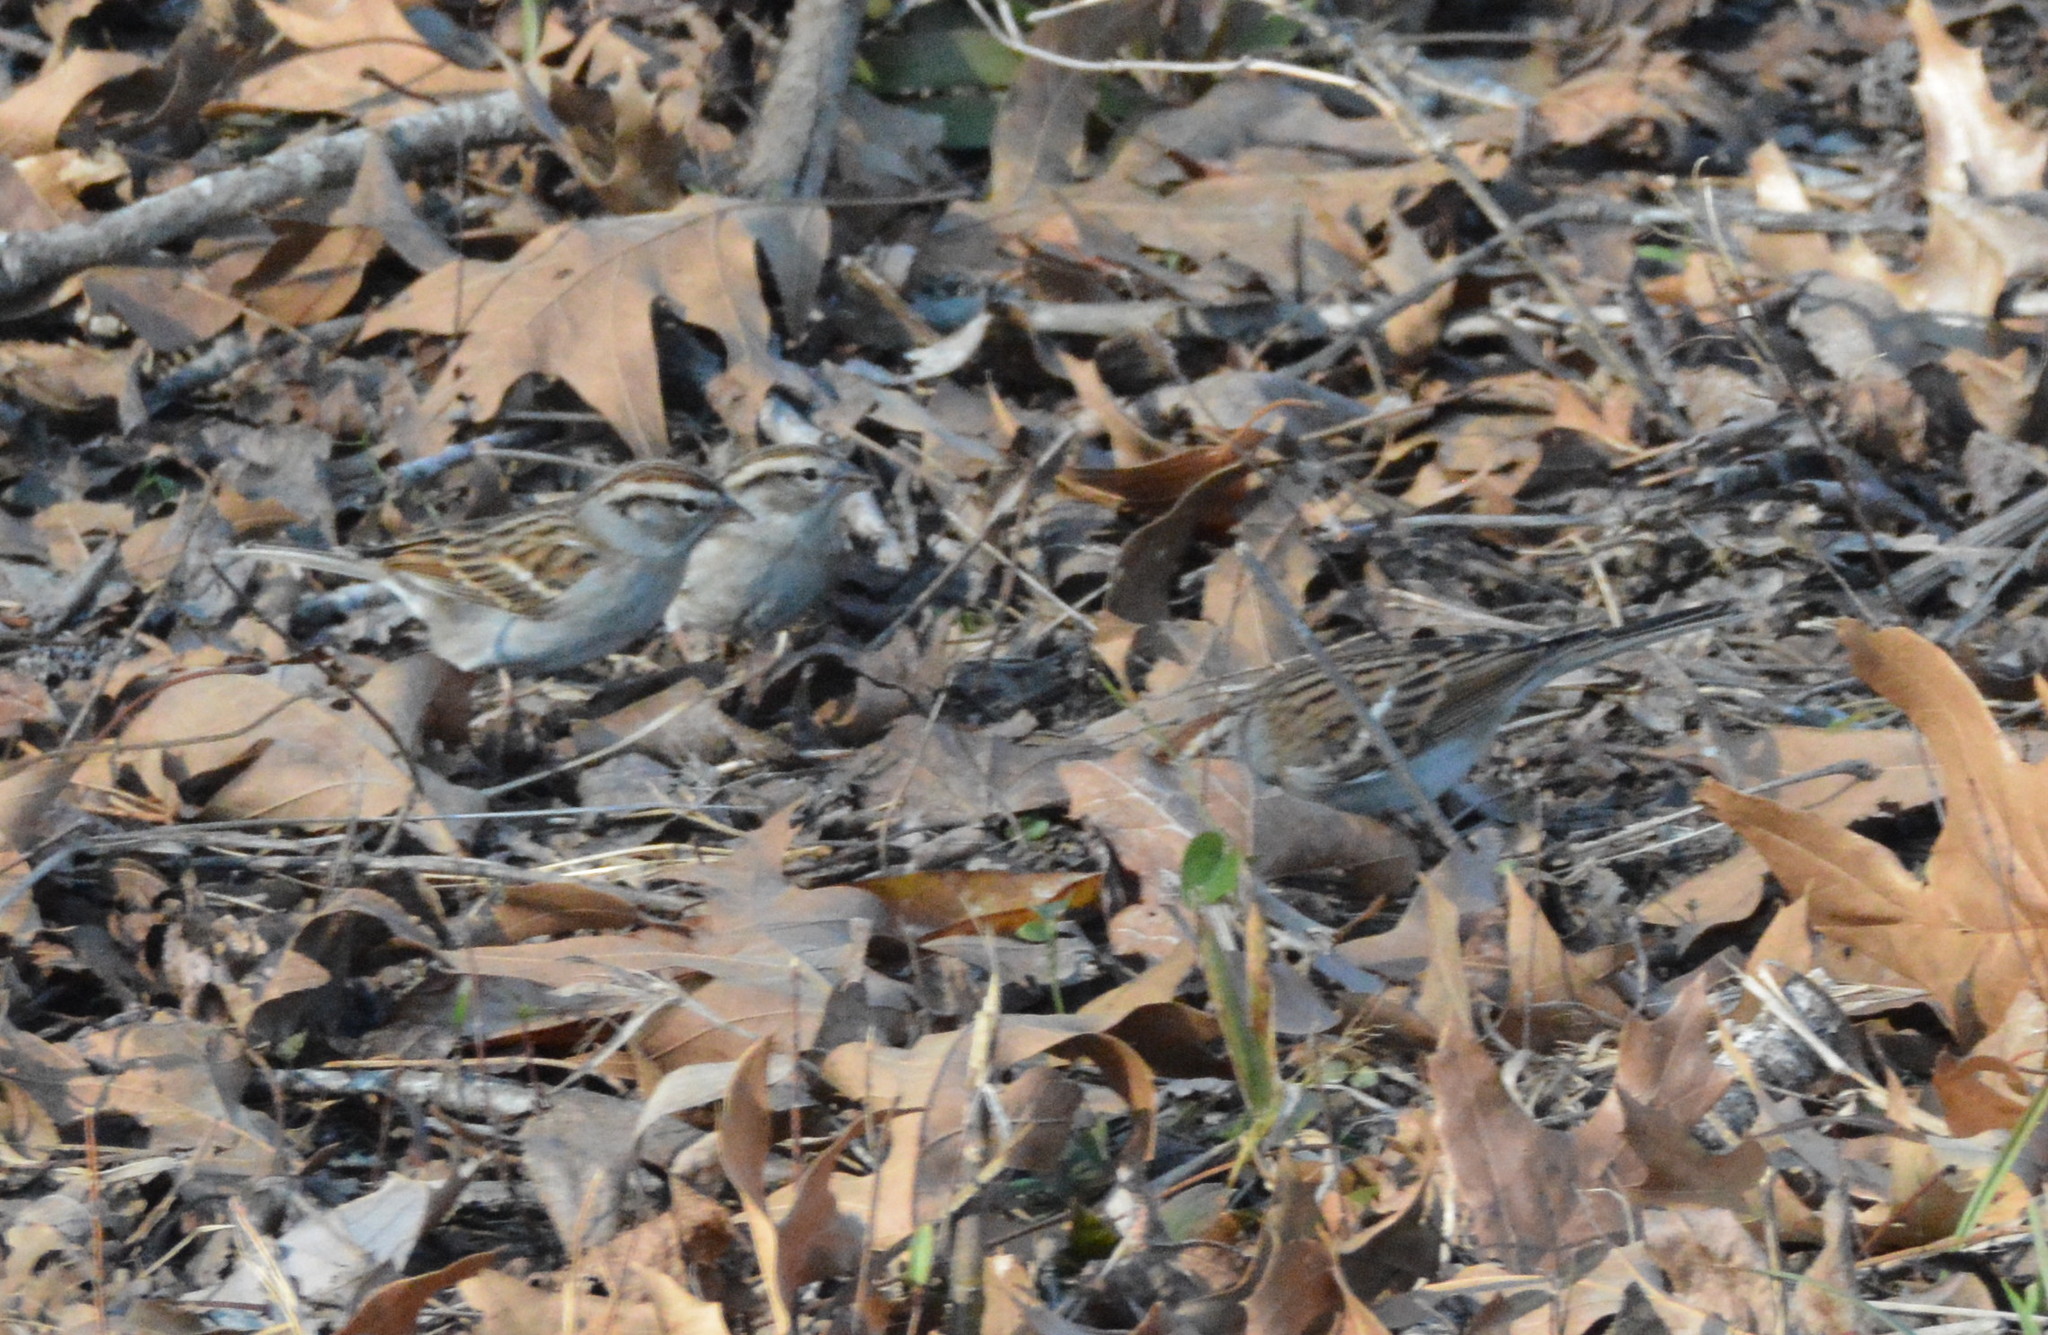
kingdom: Animalia
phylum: Chordata
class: Aves
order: Passeriformes
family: Passerellidae
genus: Spizella
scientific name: Spizella passerina
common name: Chipping sparrow
